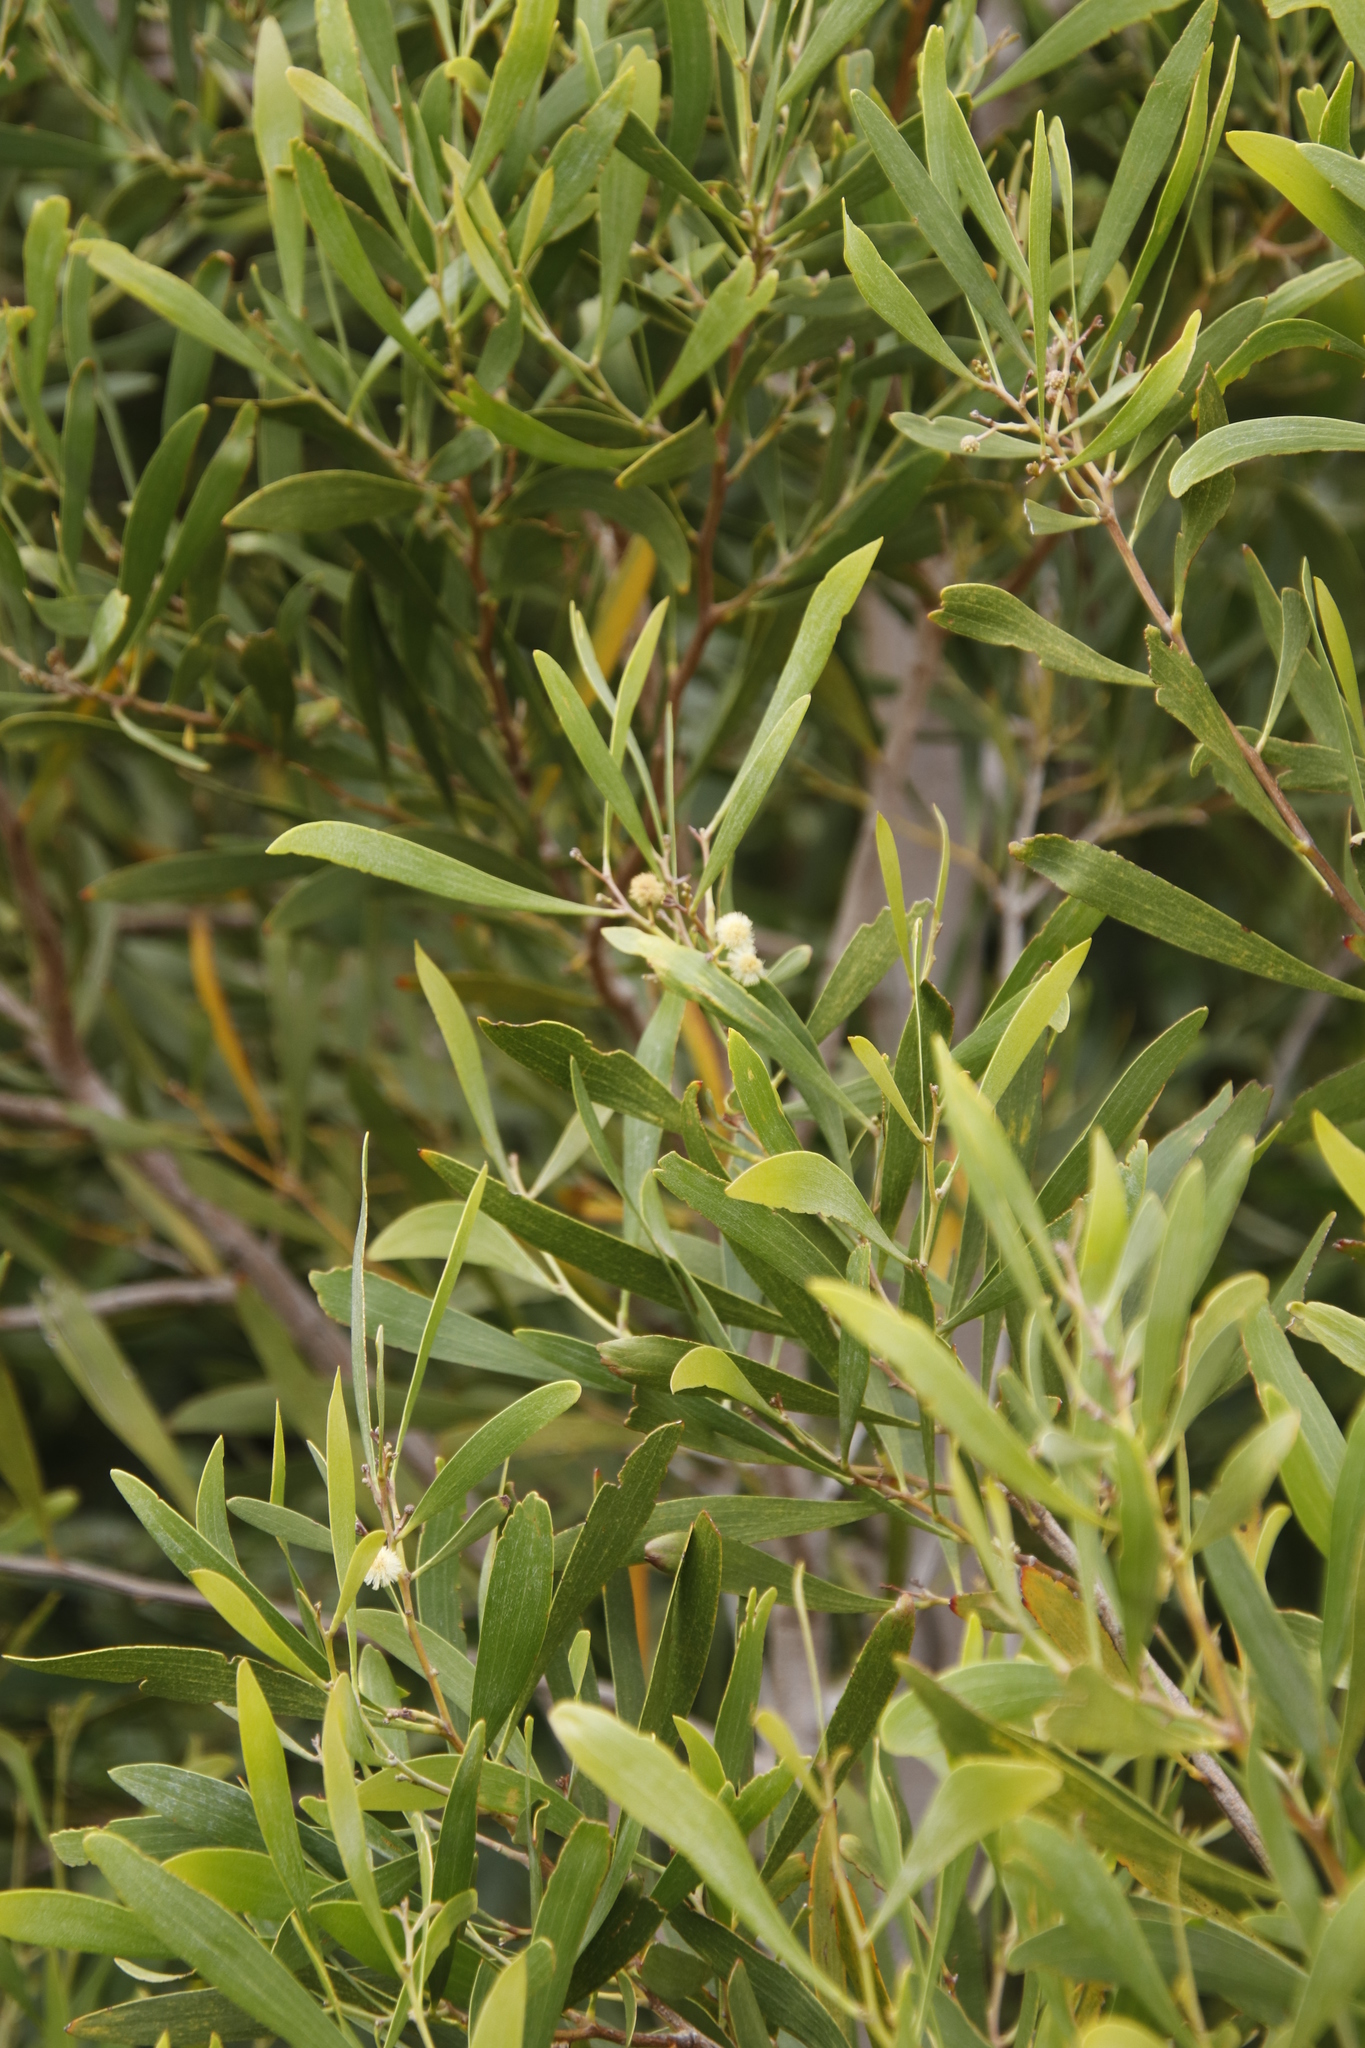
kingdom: Plantae
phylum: Tracheophyta
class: Magnoliopsida
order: Fabales
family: Fabaceae
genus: Acacia
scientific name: Acacia melanoxylon
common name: Blackwood
